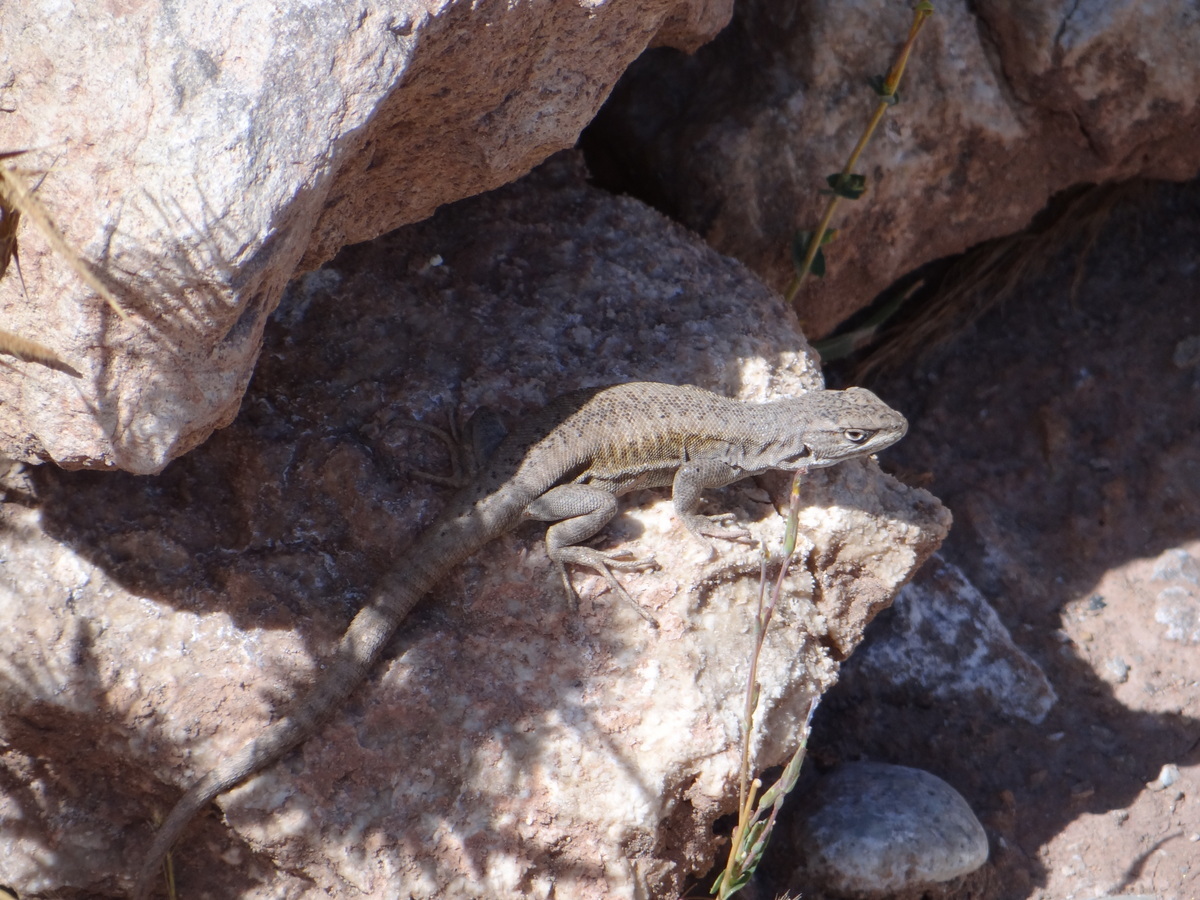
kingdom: Animalia
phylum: Chordata
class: Squamata
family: Liolaemidae
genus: Liolaemus
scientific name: Liolaemus smaug
